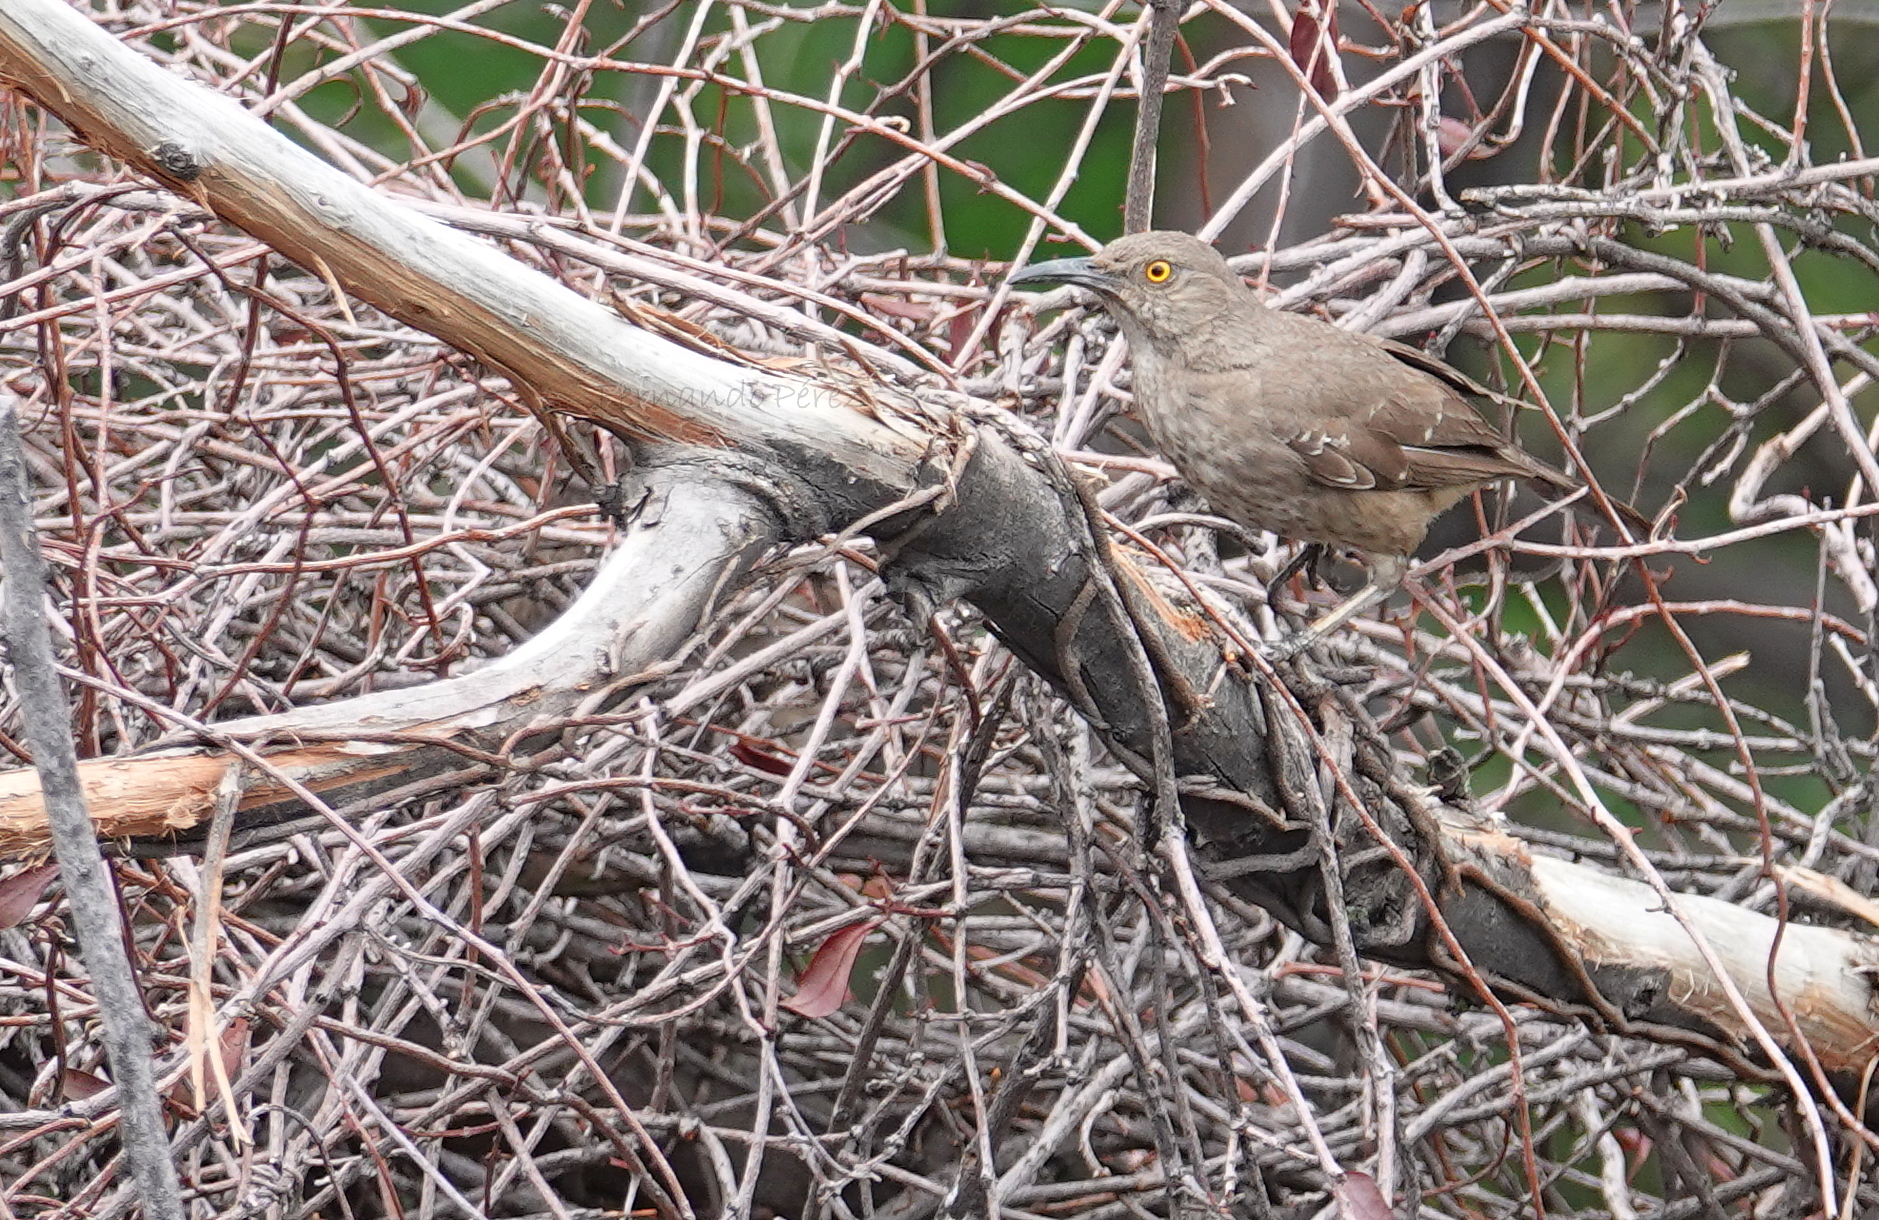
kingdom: Animalia
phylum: Chordata
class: Aves
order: Passeriformes
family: Mimidae
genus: Toxostoma
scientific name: Toxostoma curvirostre
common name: Curve-billed thrasher
